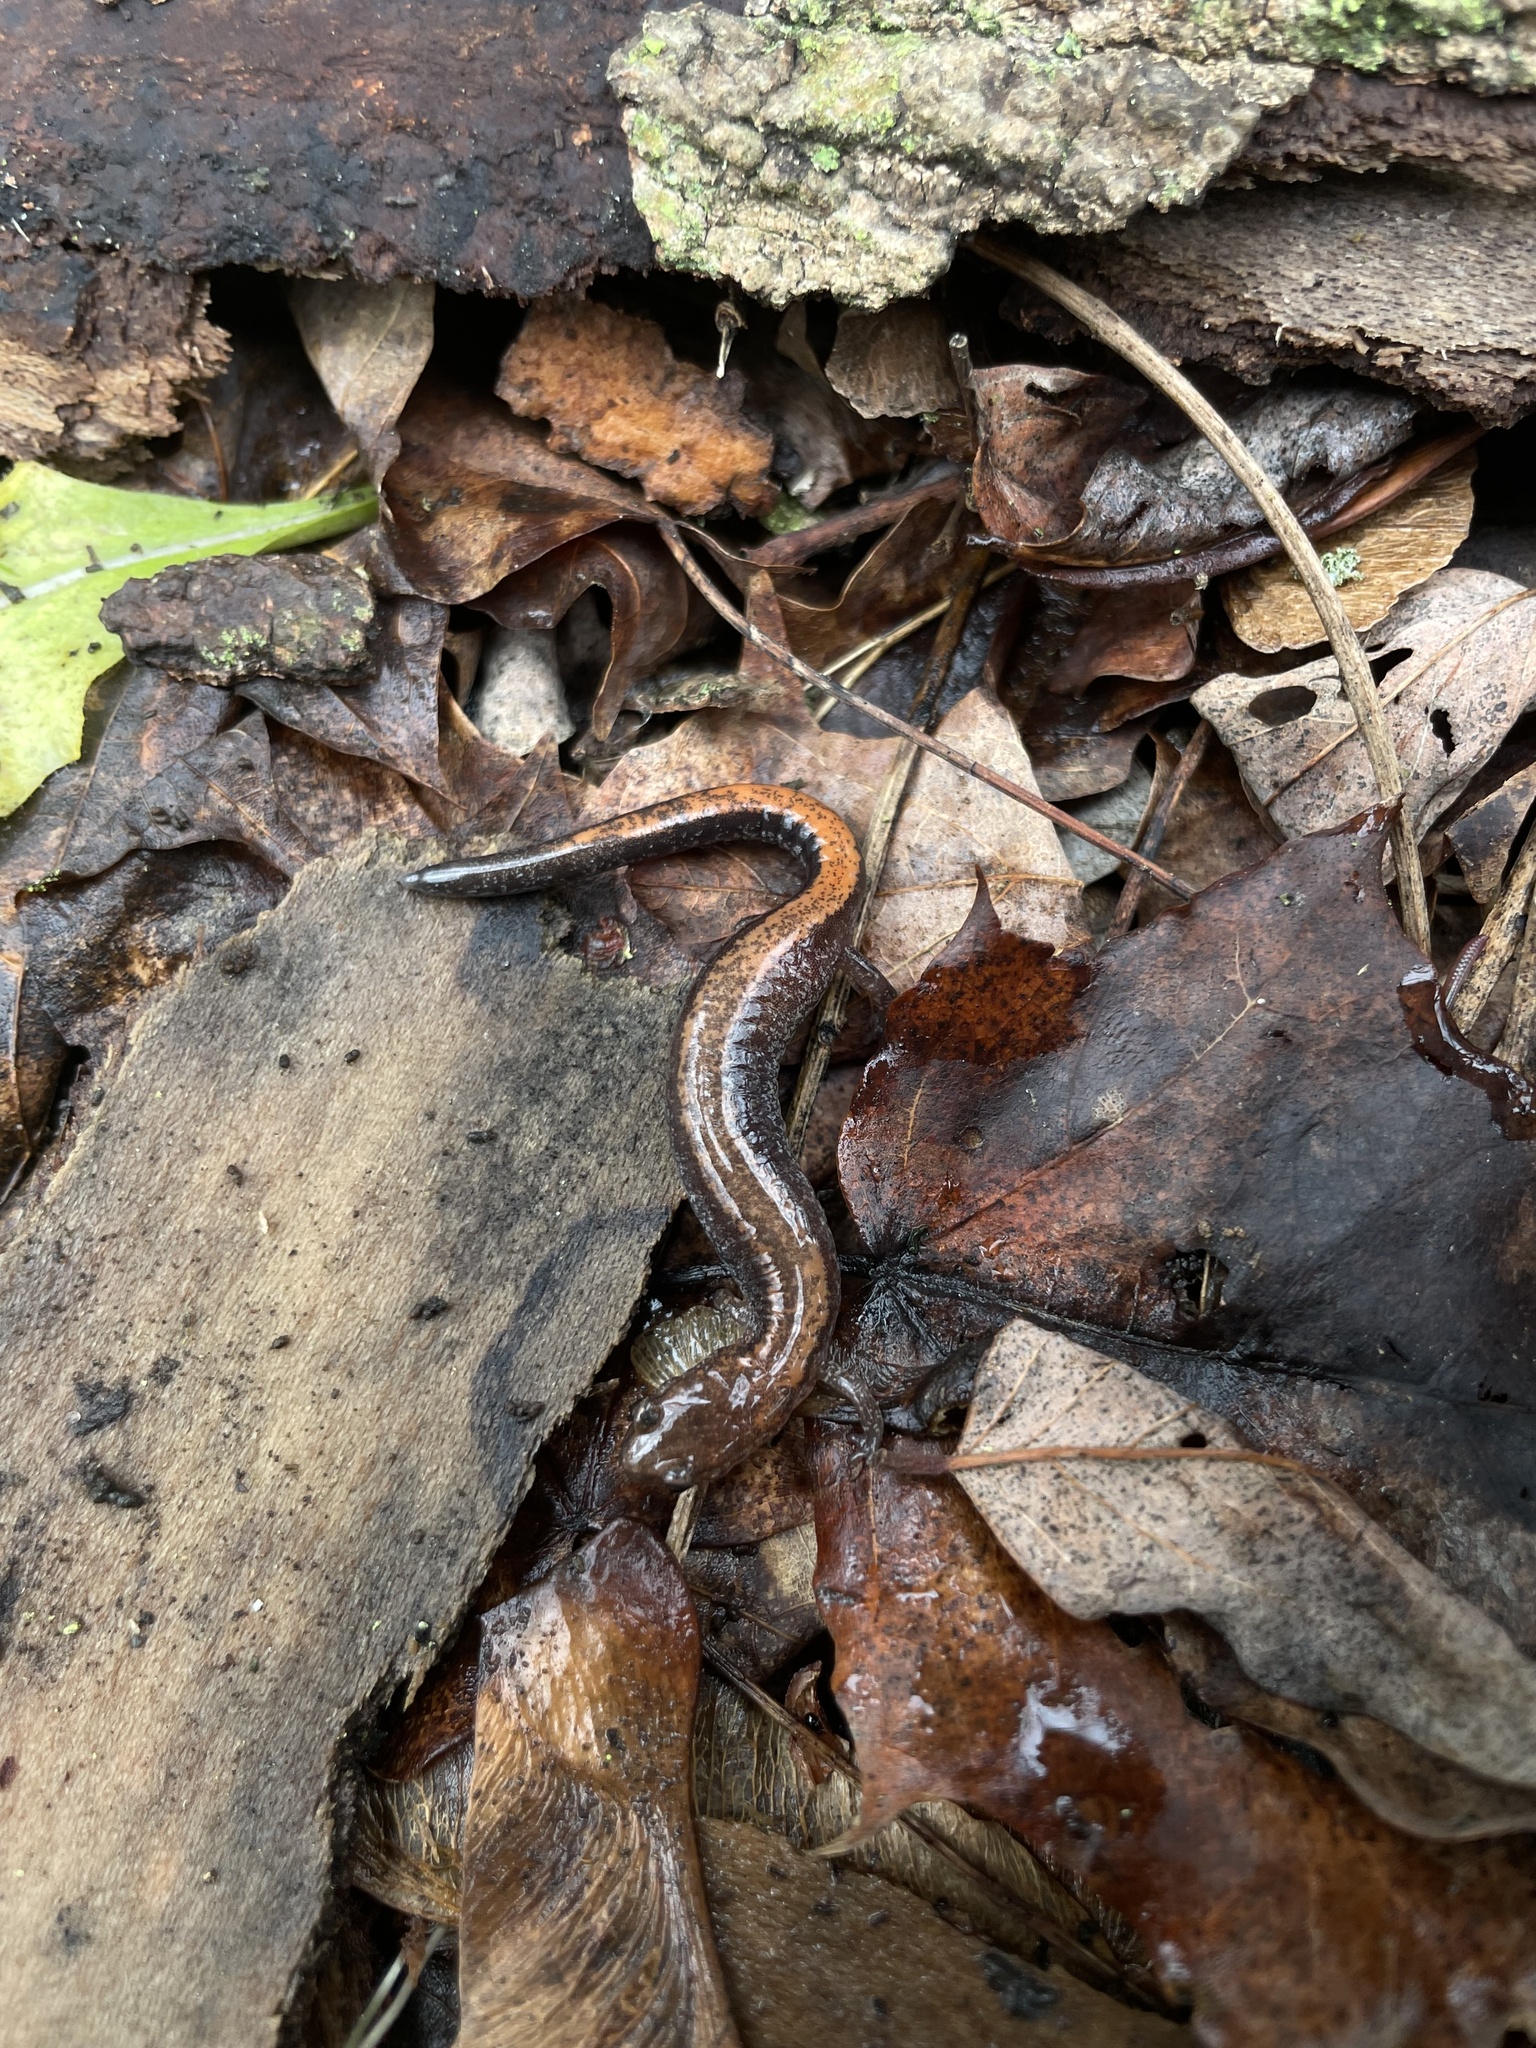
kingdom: Animalia
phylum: Chordata
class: Amphibia
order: Caudata
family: Plethodontidae
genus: Plethodon
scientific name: Plethodon cinereus
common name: Redback salamander
